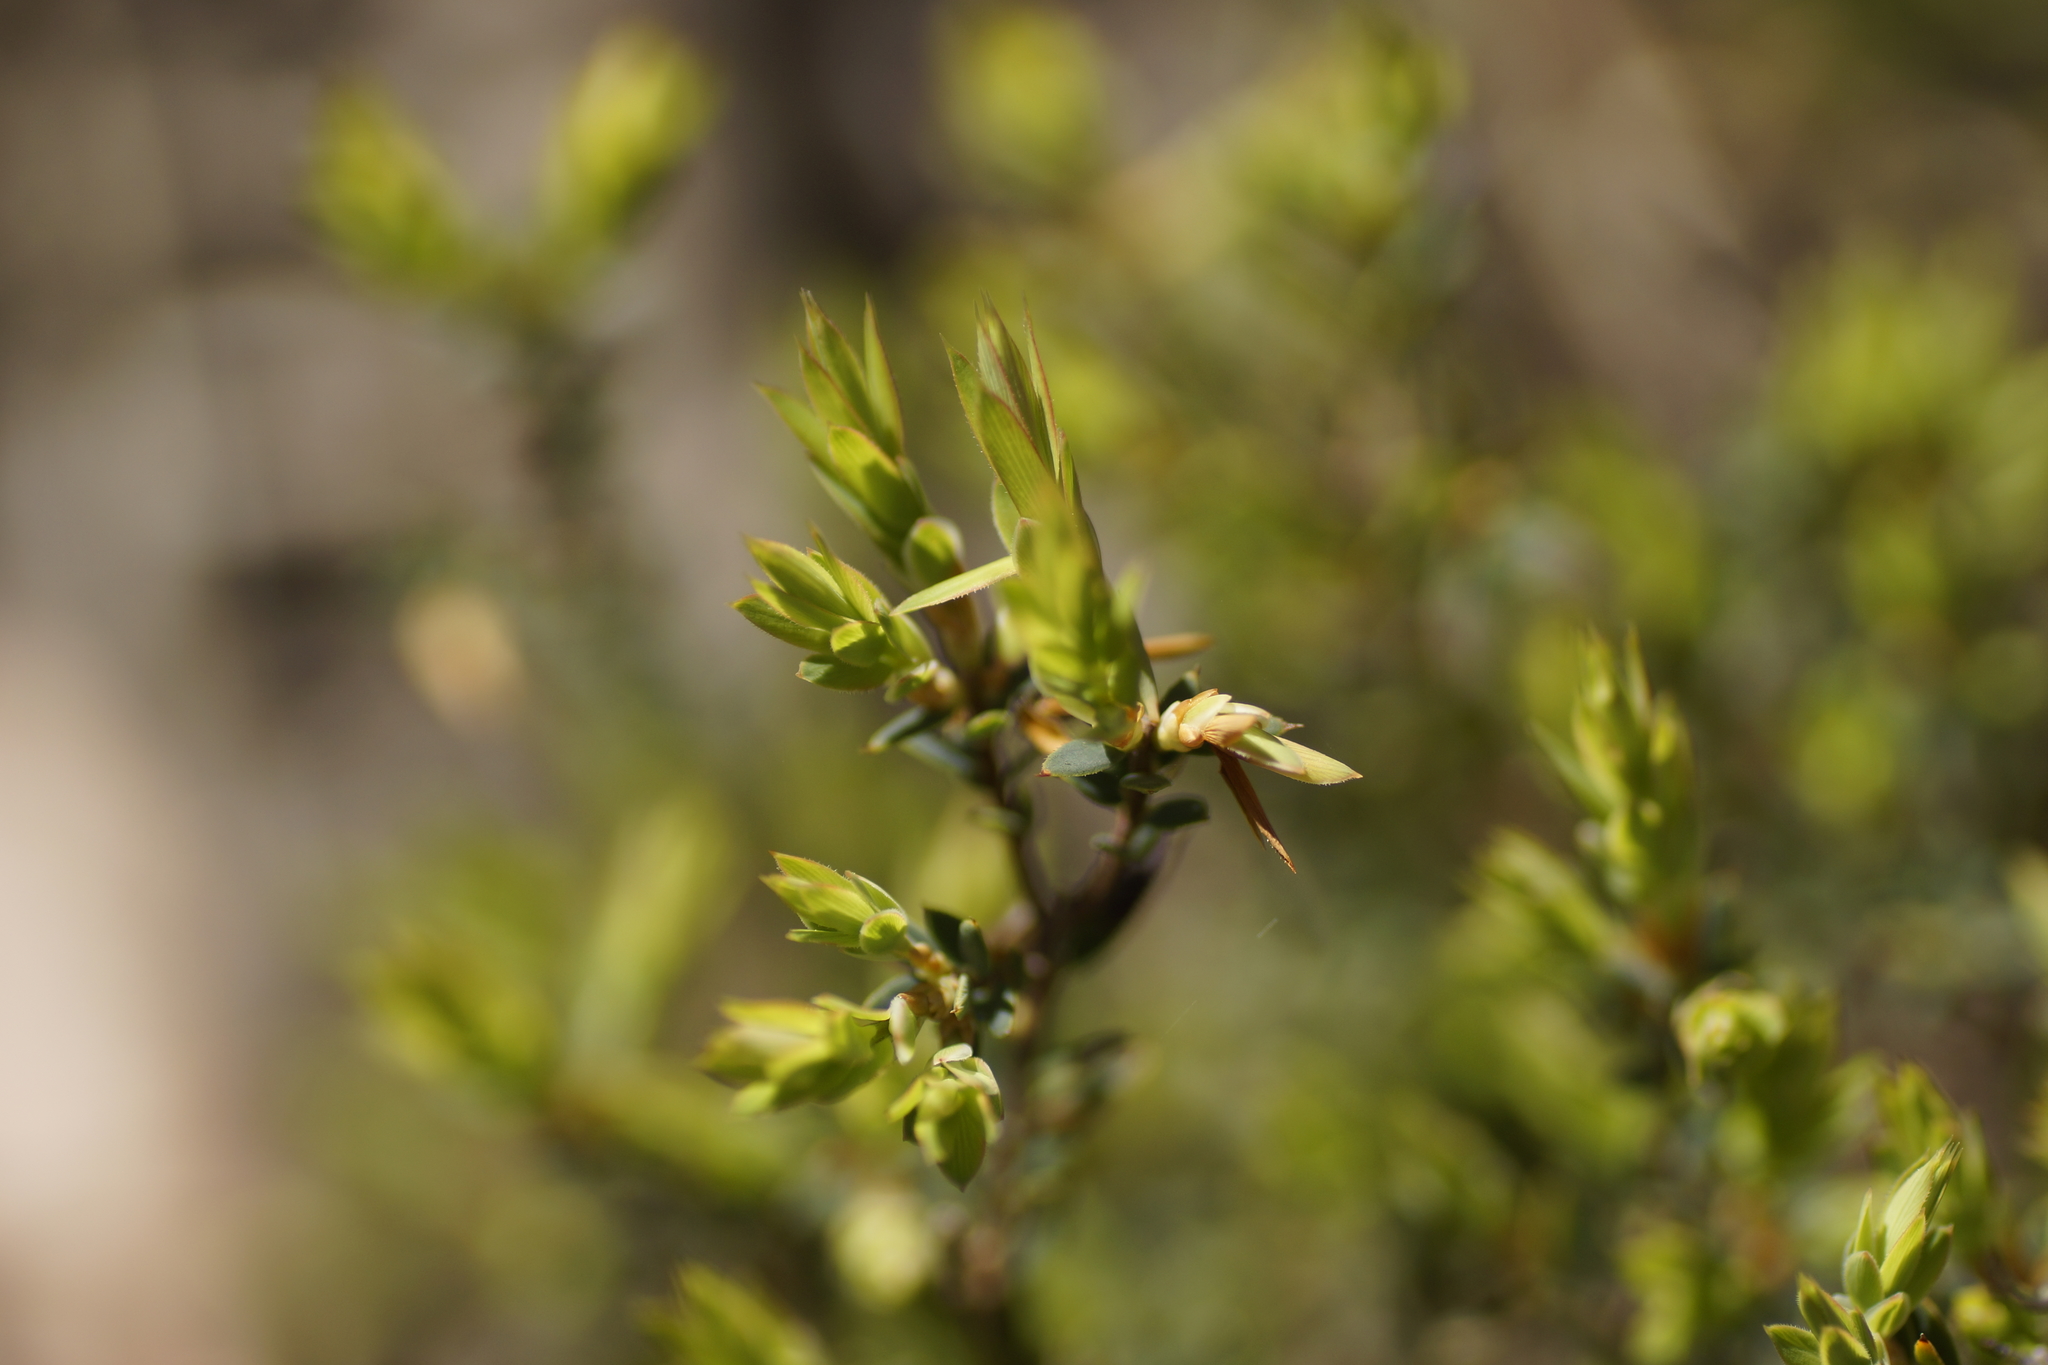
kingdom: Plantae
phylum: Tracheophyta
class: Magnoliopsida
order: Ericales
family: Ericaceae
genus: Brachyloma
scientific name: Brachyloma ciliatum
